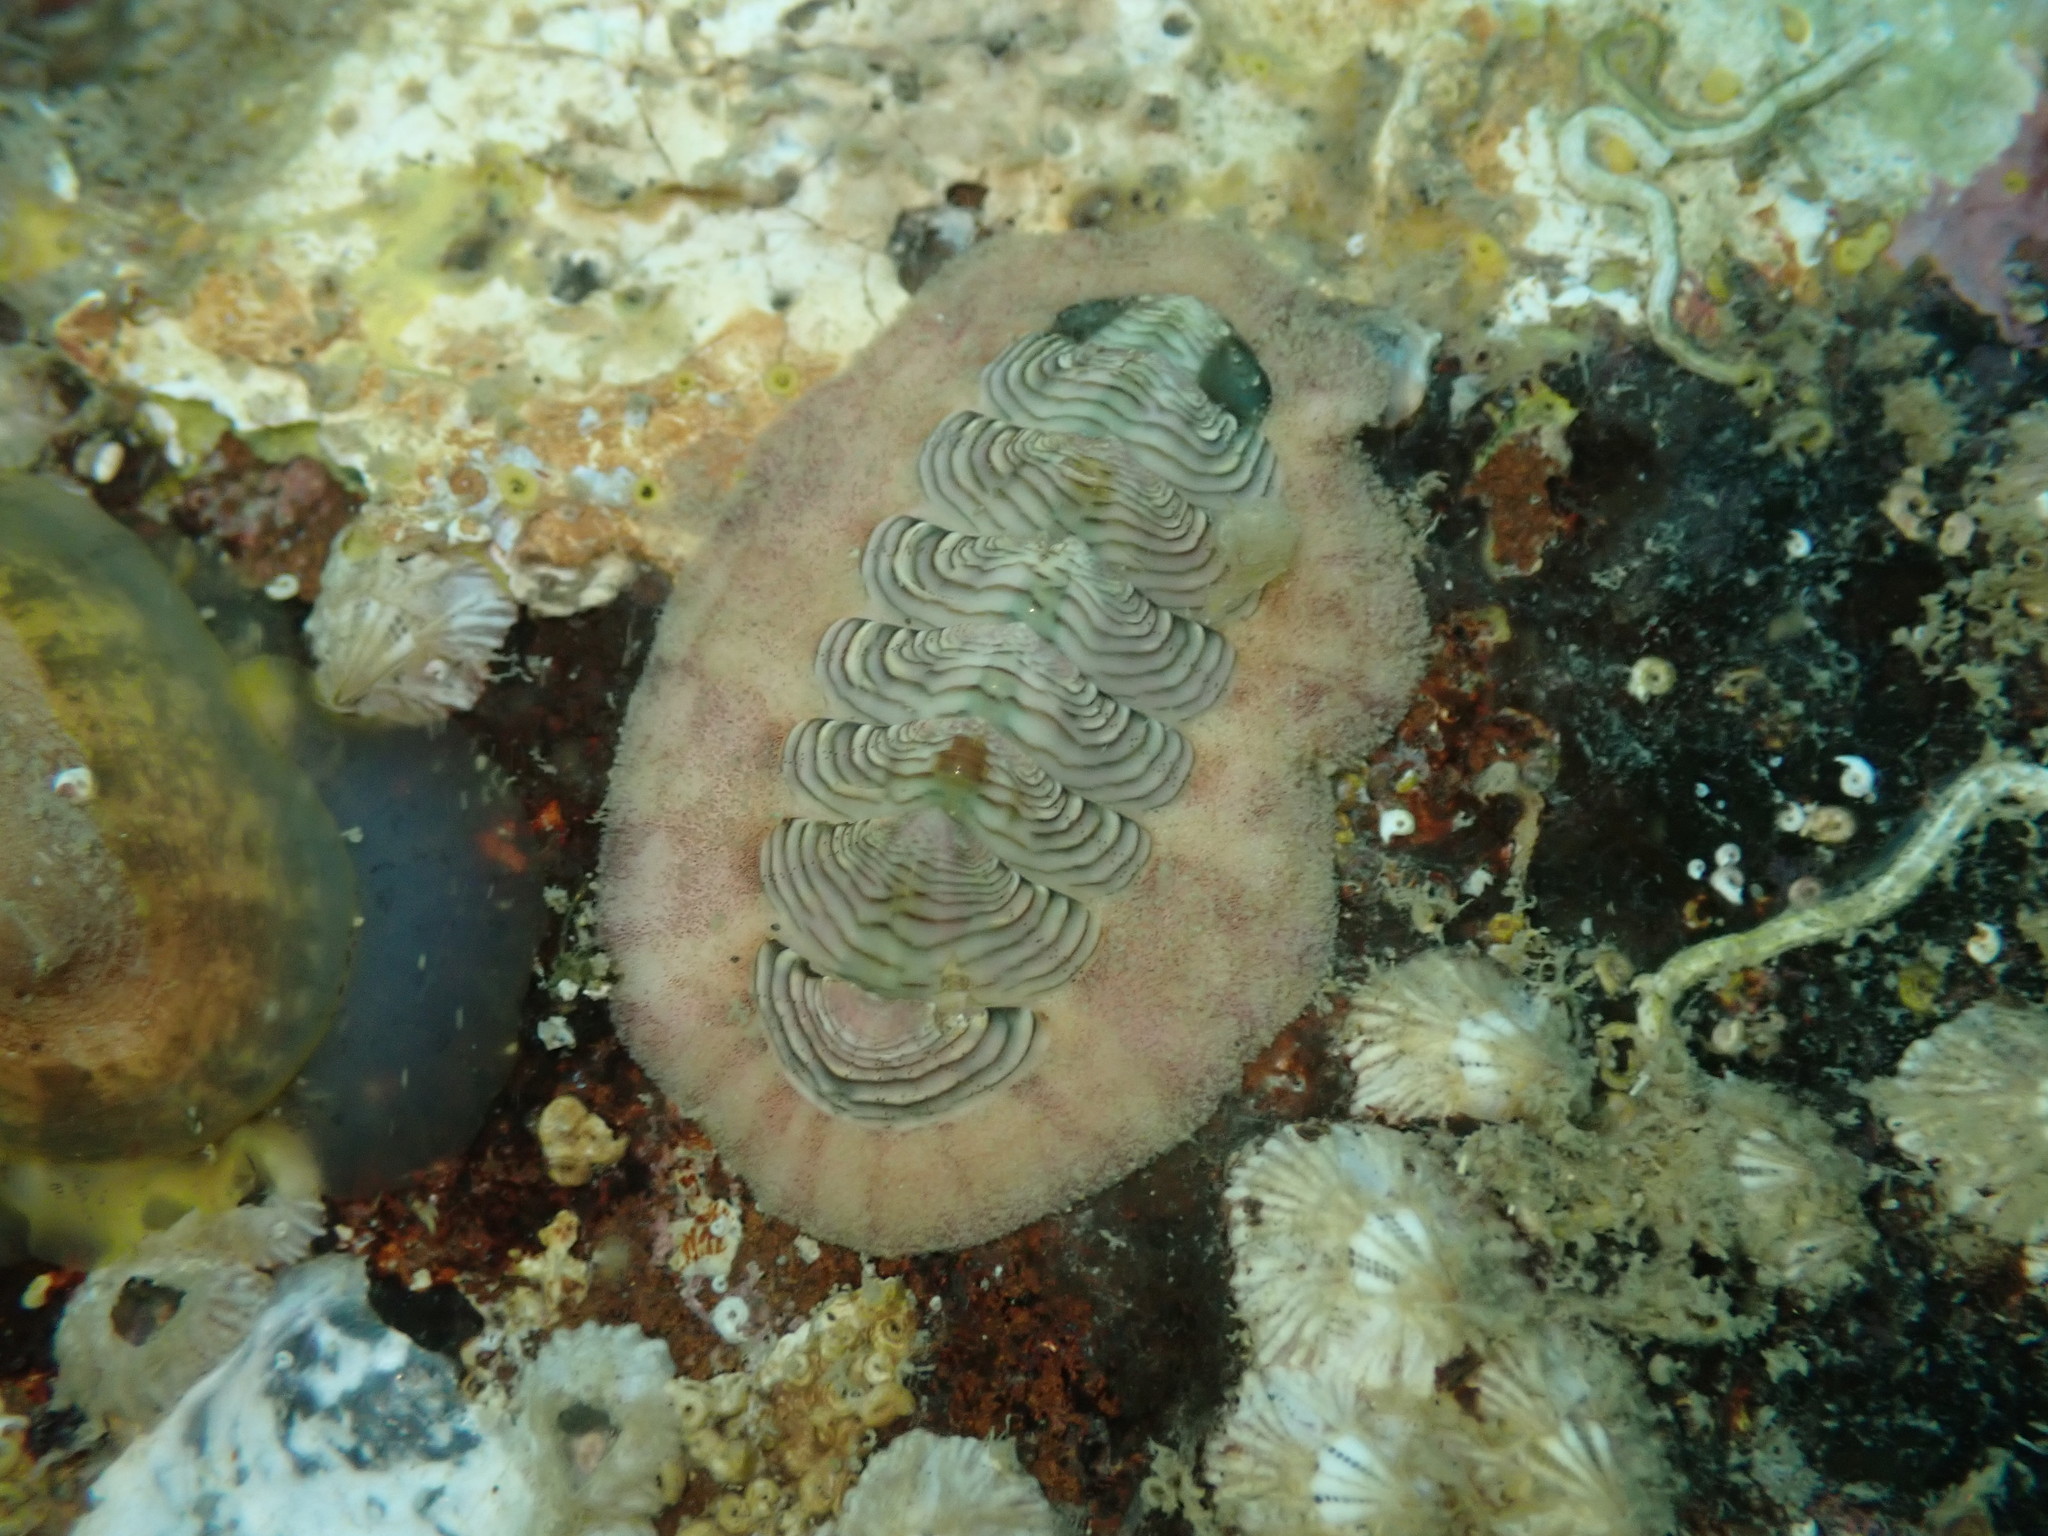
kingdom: Animalia
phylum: Mollusca
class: Polyplacophora
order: Chitonida
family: Chitonidae
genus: Onithochiton
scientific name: Onithochiton neglectus
